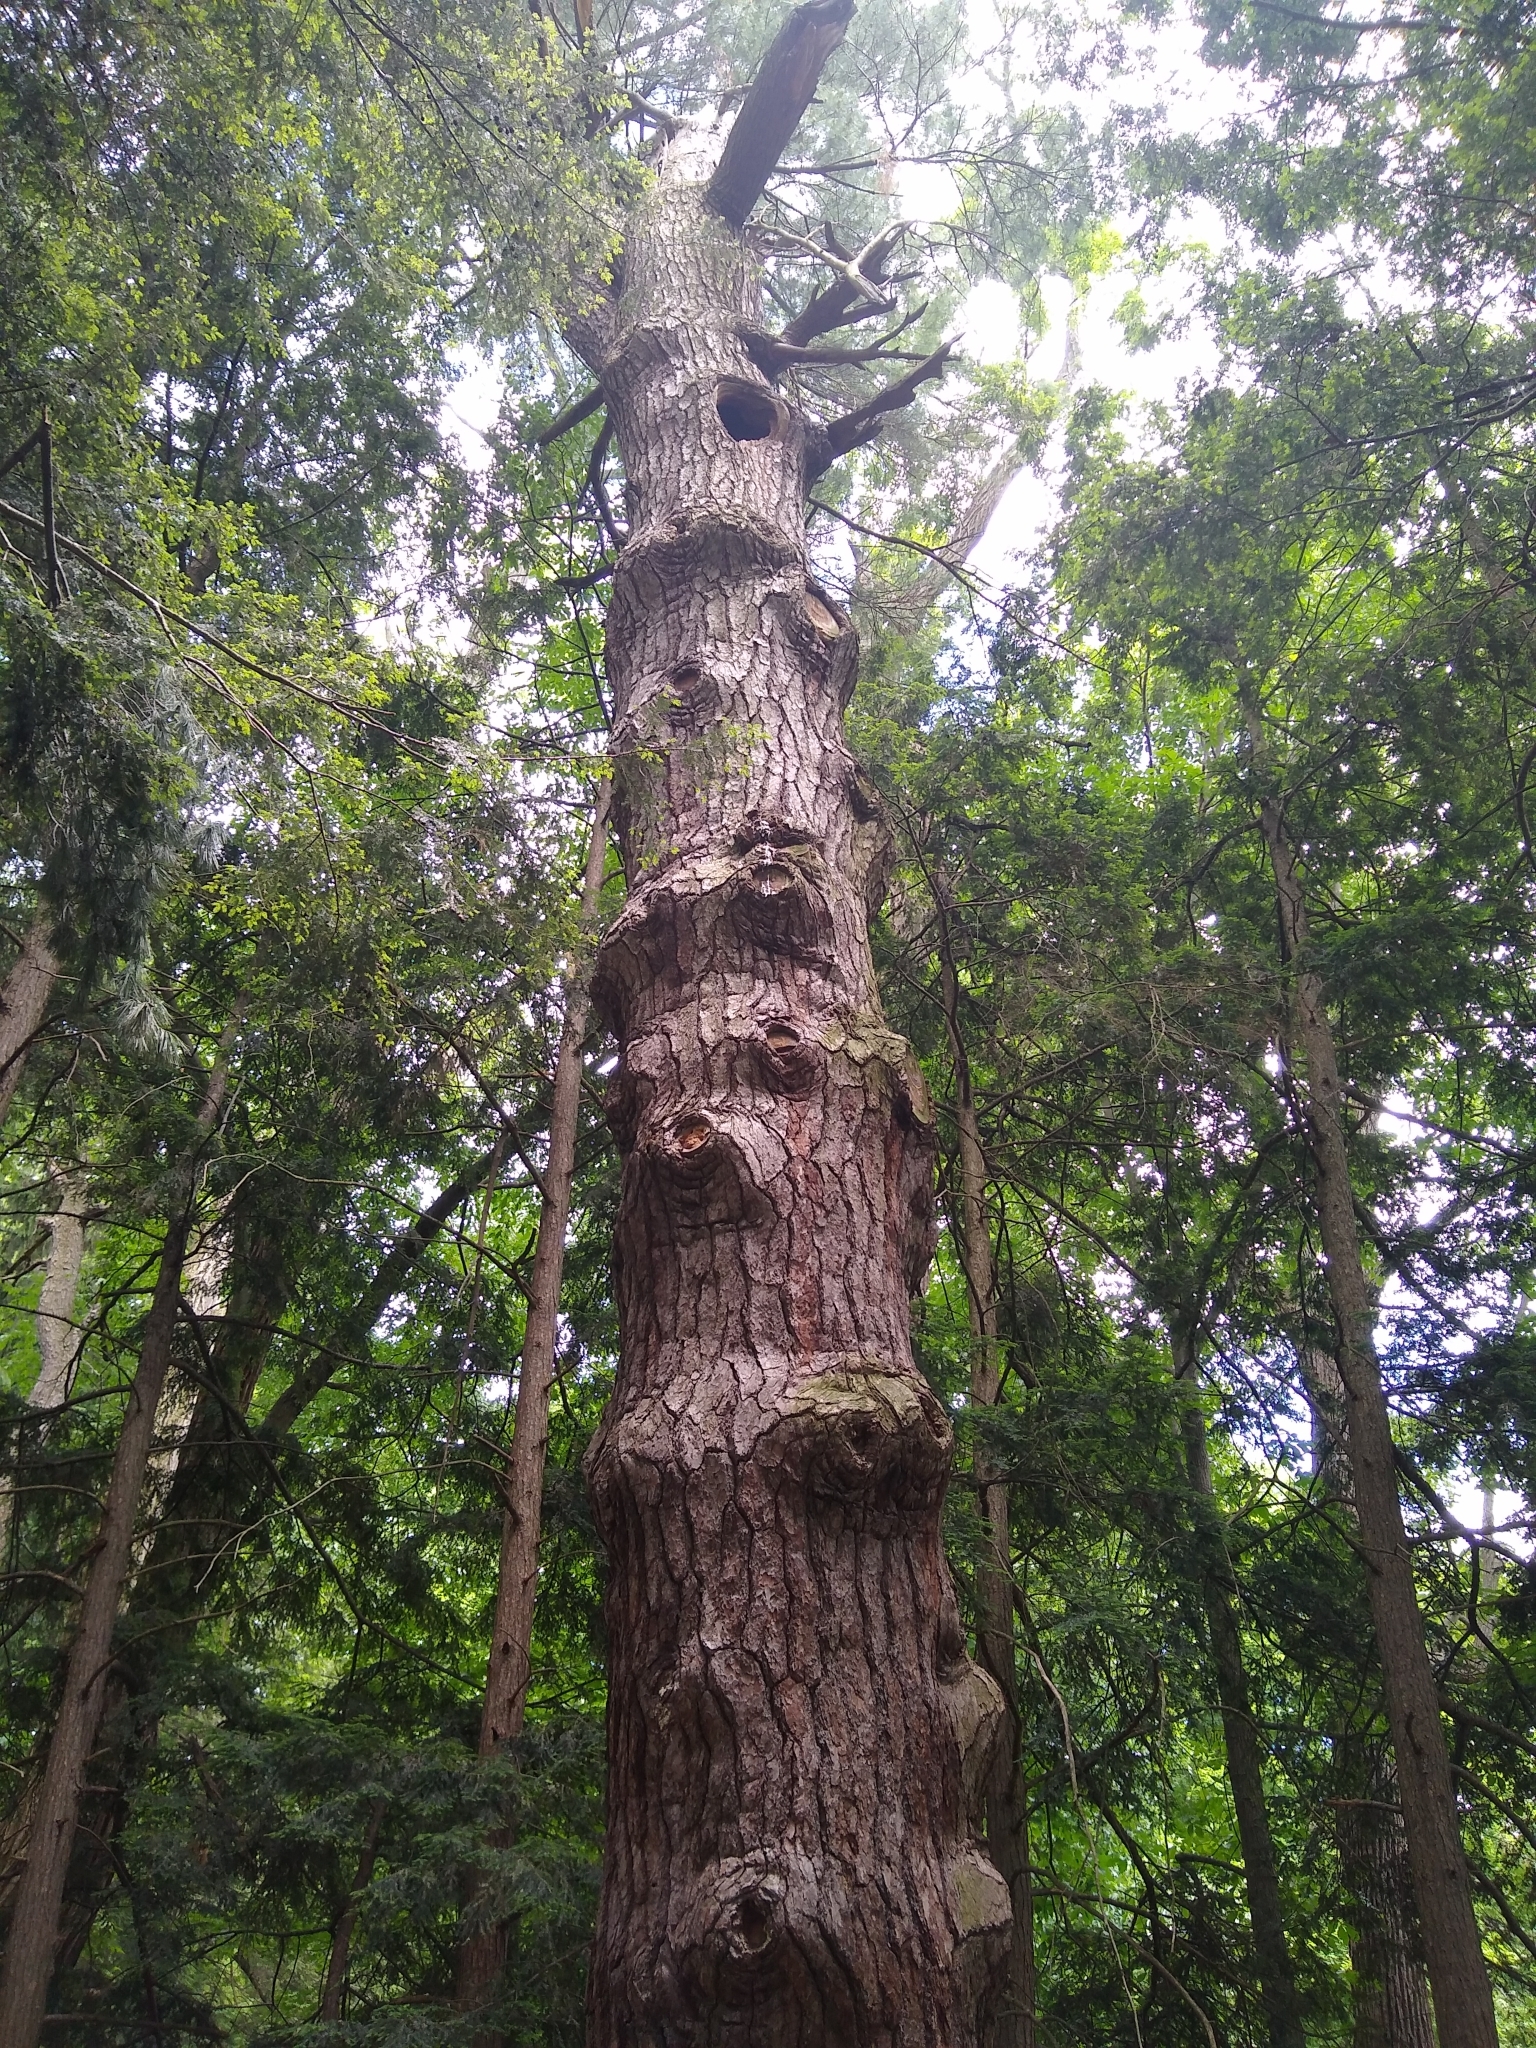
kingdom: Plantae
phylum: Tracheophyta
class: Pinopsida
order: Pinales
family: Pinaceae
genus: Pinus
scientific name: Pinus strobus
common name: Weymouth pine
